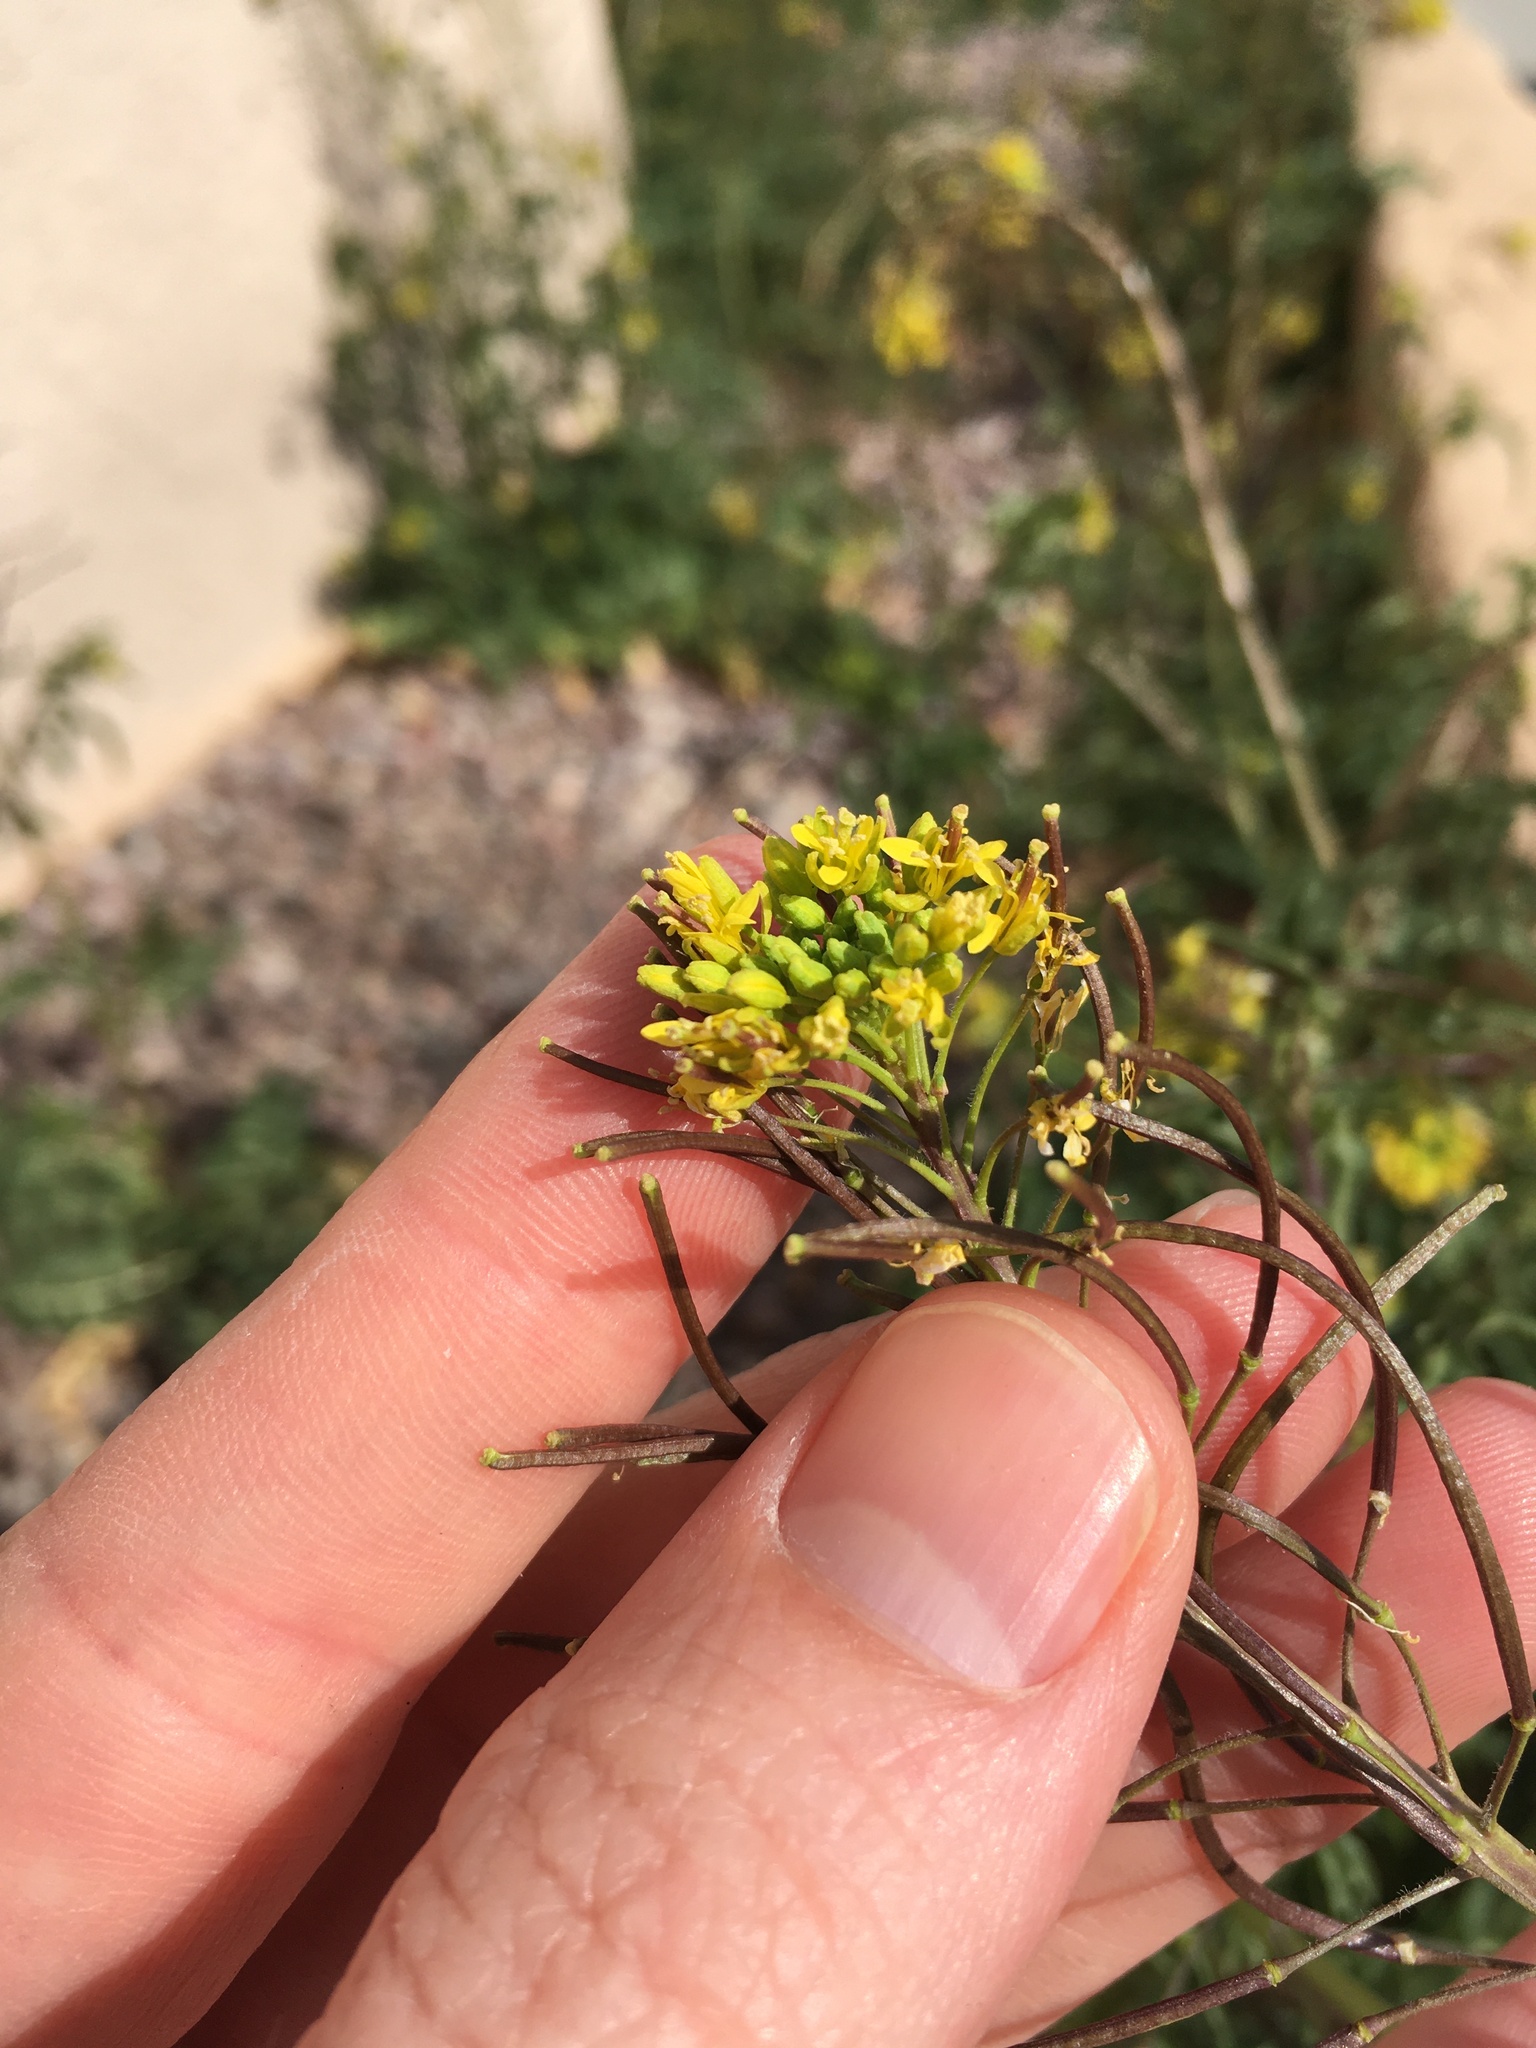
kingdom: Plantae
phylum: Tracheophyta
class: Magnoliopsida
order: Brassicales
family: Brassicaceae
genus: Sisymbrium
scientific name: Sisymbrium irio
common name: London rocket
